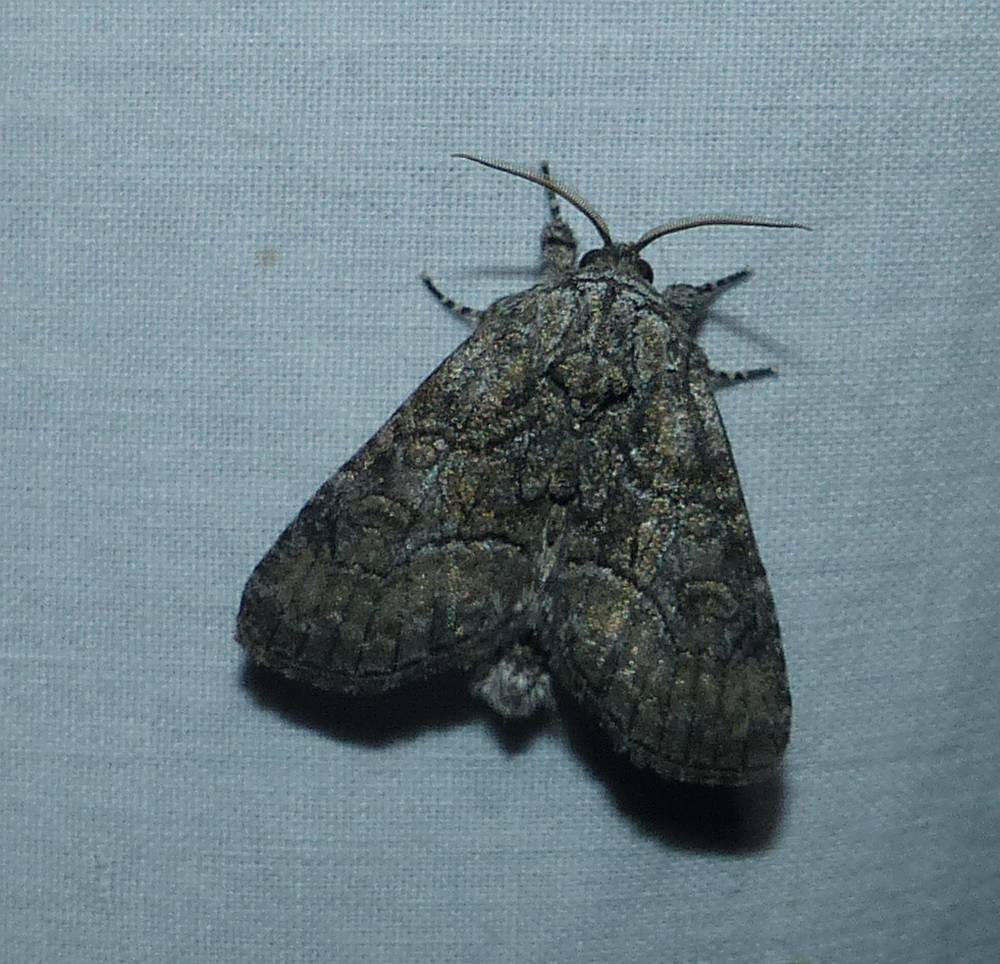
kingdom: Animalia
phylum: Arthropoda
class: Insecta
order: Lepidoptera
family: Noctuidae
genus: Raphia
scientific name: Raphia frater
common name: Brother
